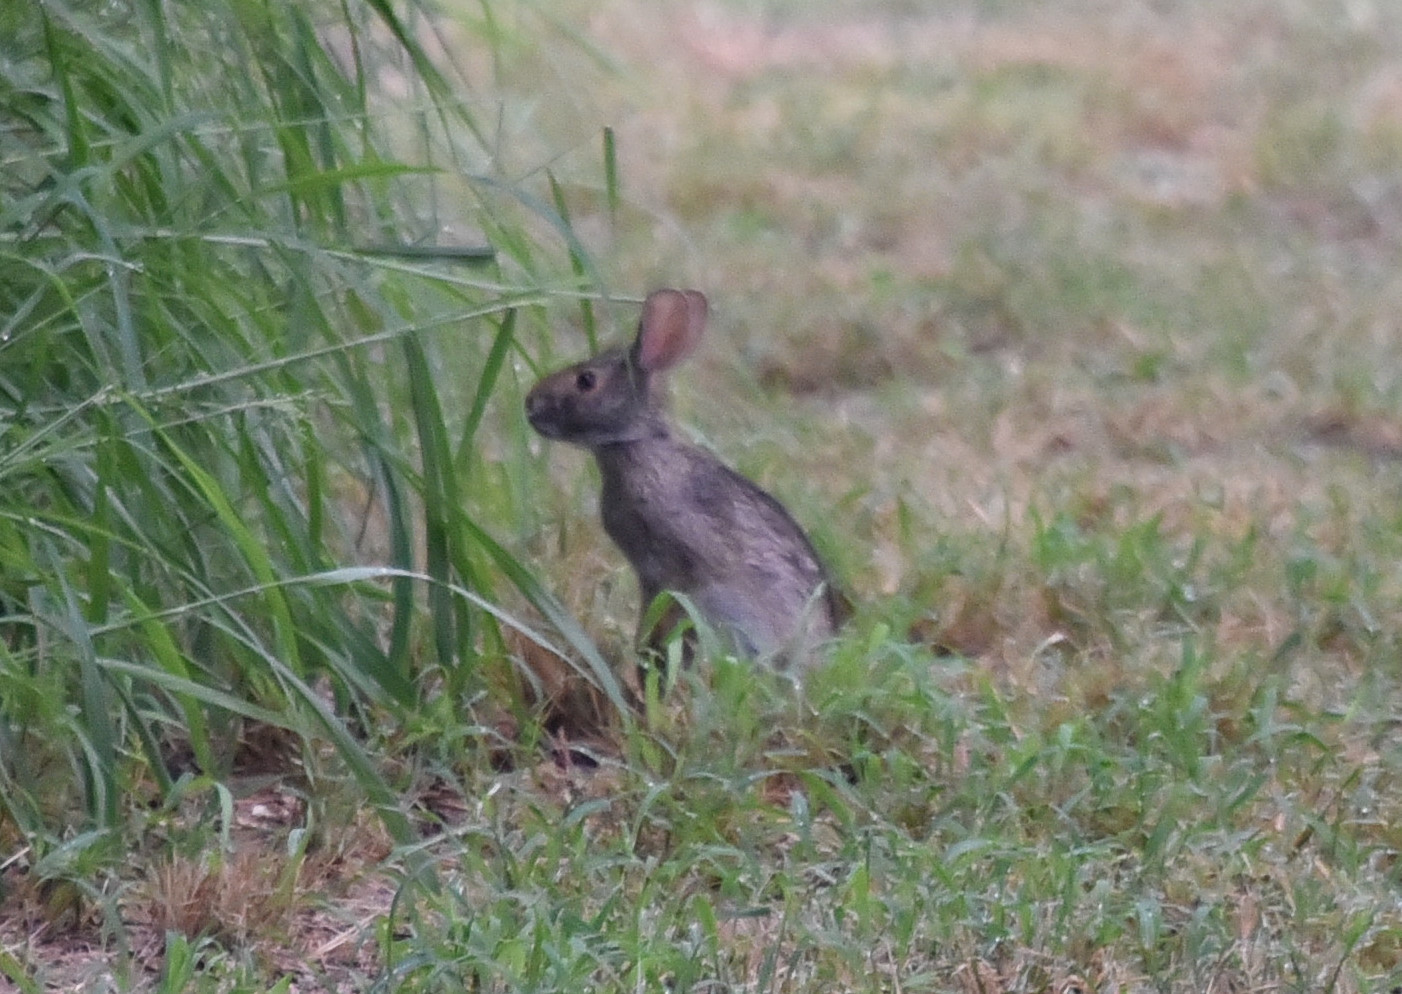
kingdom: Animalia
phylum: Chordata
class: Mammalia
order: Lagomorpha
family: Leporidae
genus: Sylvilagus
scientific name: Sylvilagus aquaticus
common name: Swamp rabbit
